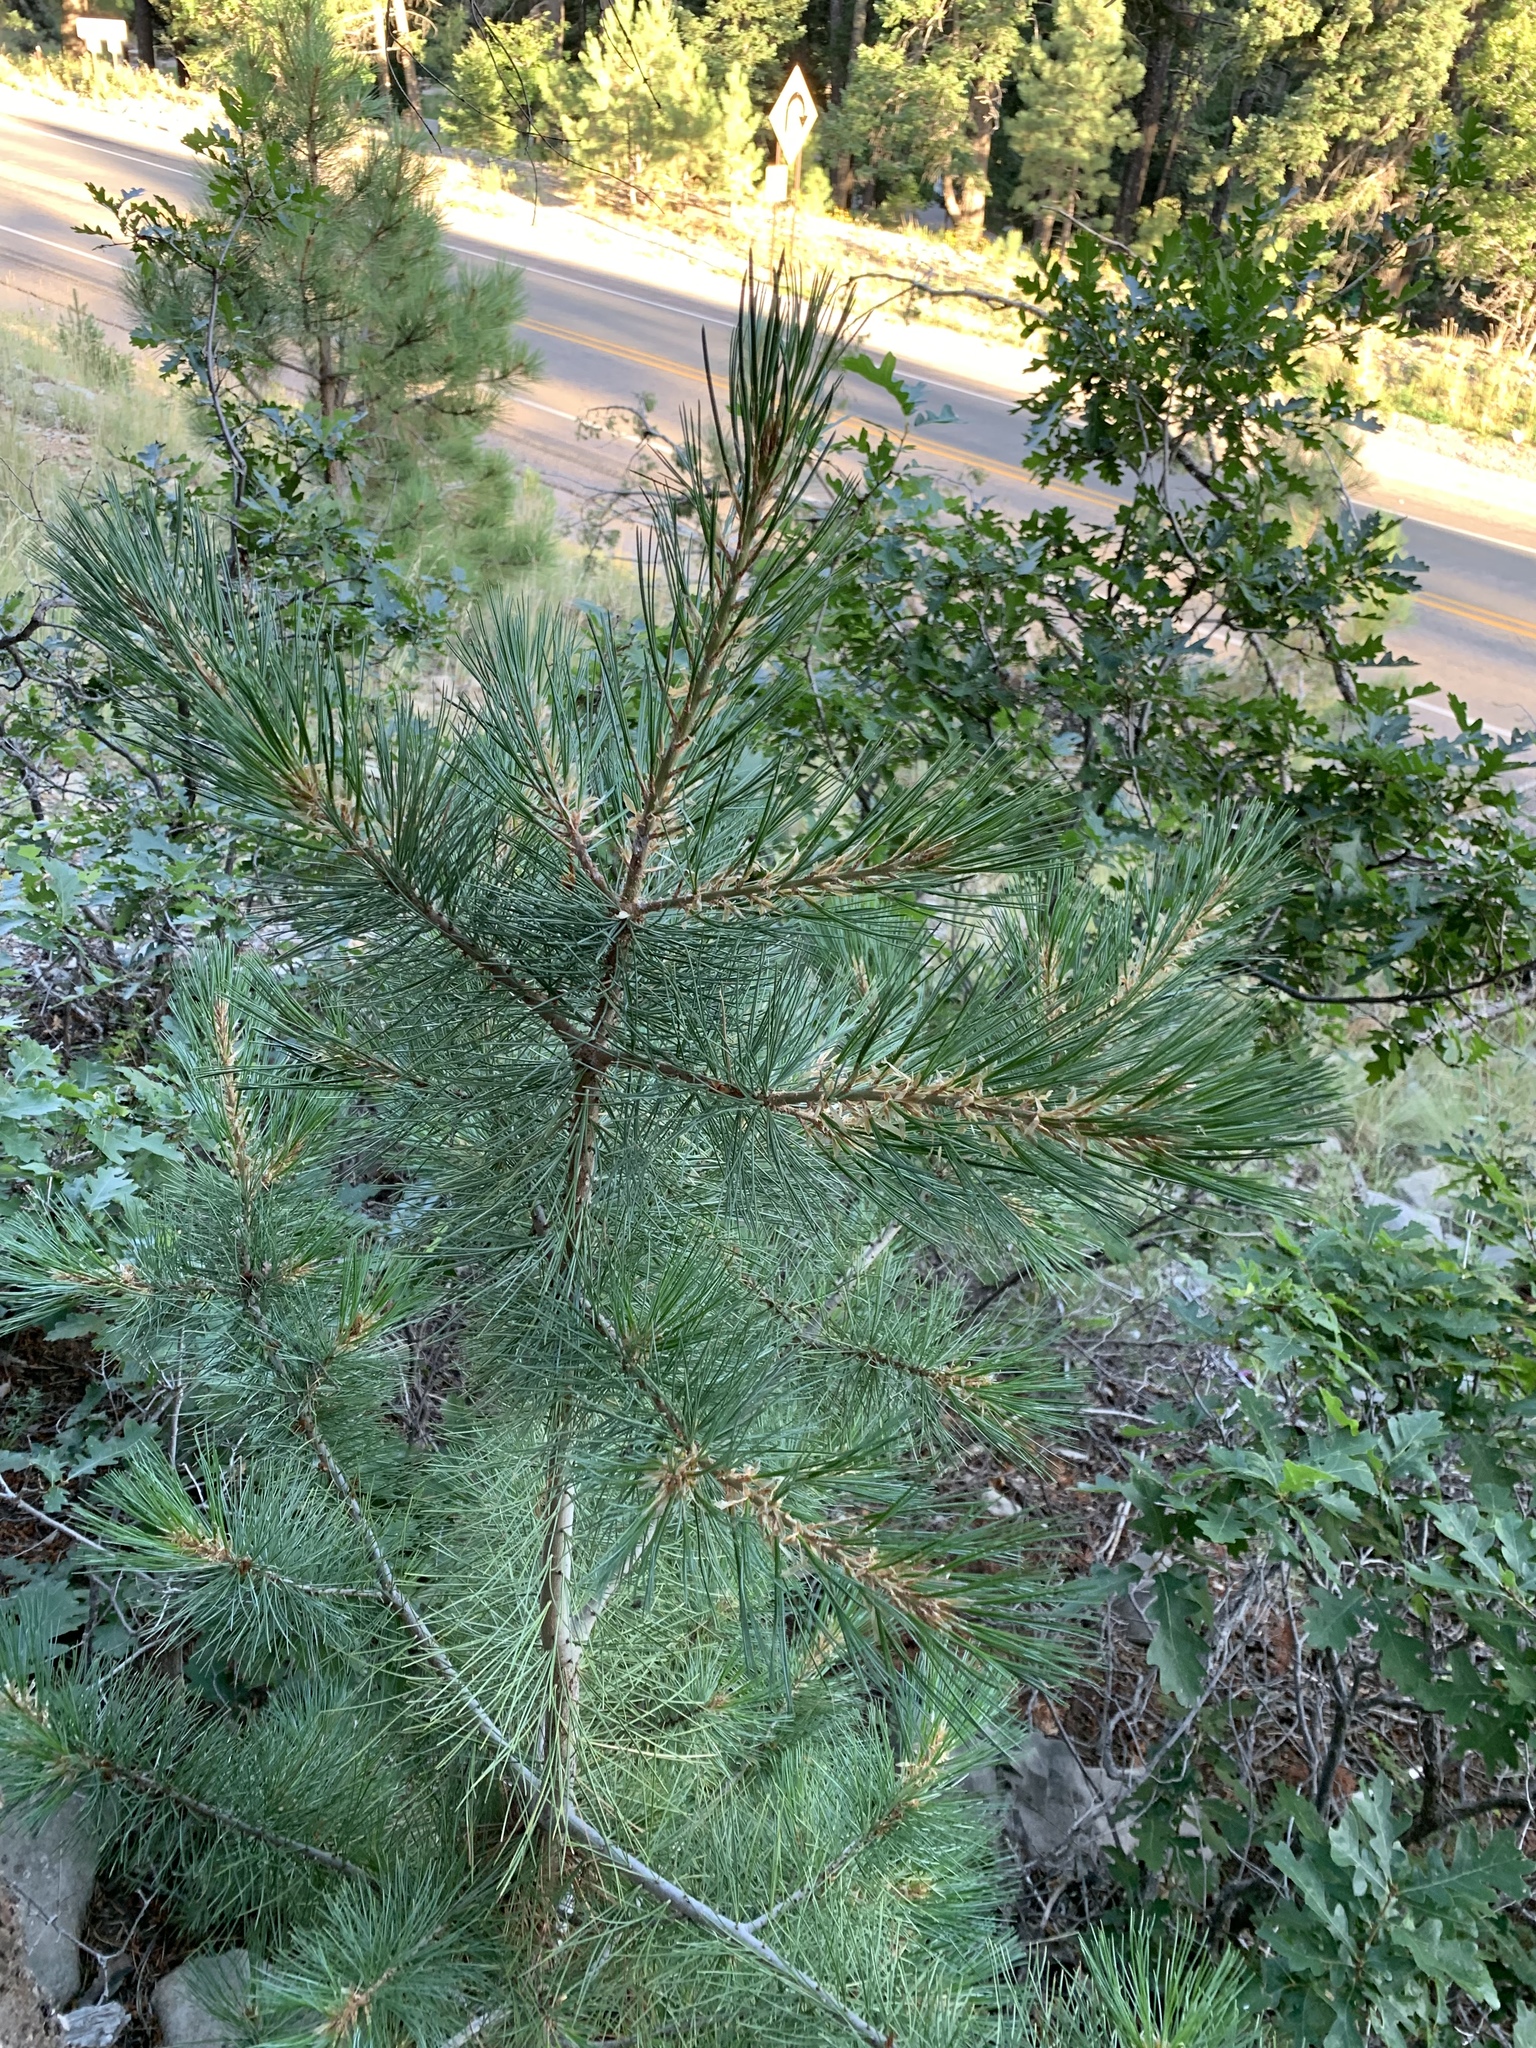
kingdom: Plantae
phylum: Tracheophyta
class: Pinopsida
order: Pinales
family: Pinaceae
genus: Pinus
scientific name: Pinus strobiformis
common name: Southwestern white pine
